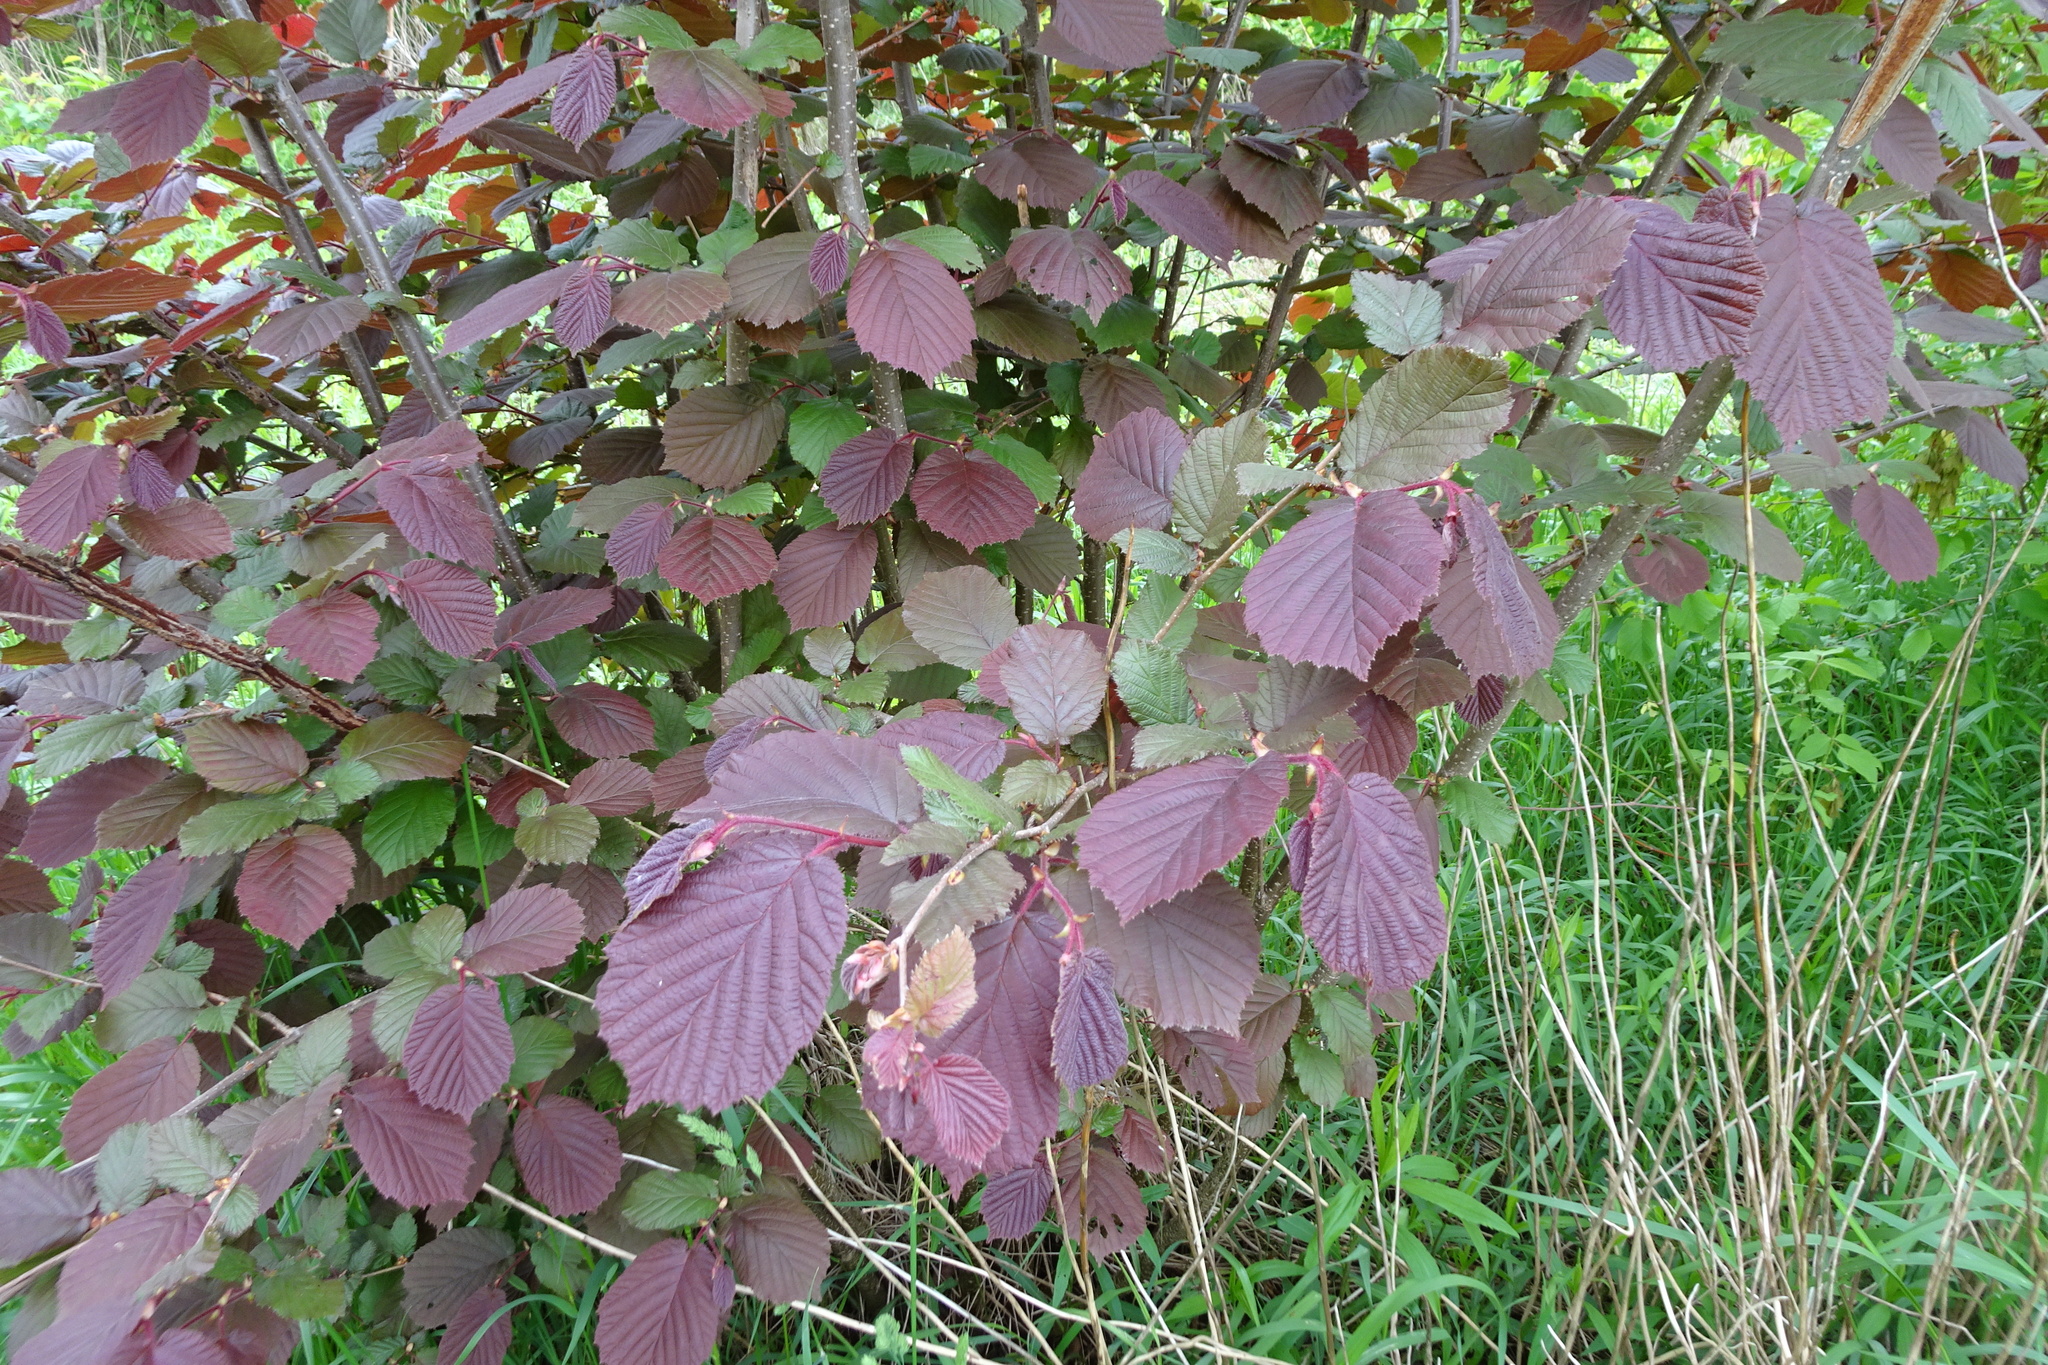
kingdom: Plantae
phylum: Tracheophyta
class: Magnoliopsida
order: Fagales
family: Betulaceae
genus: Corylus
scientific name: Corylus avellana
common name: European hazel
